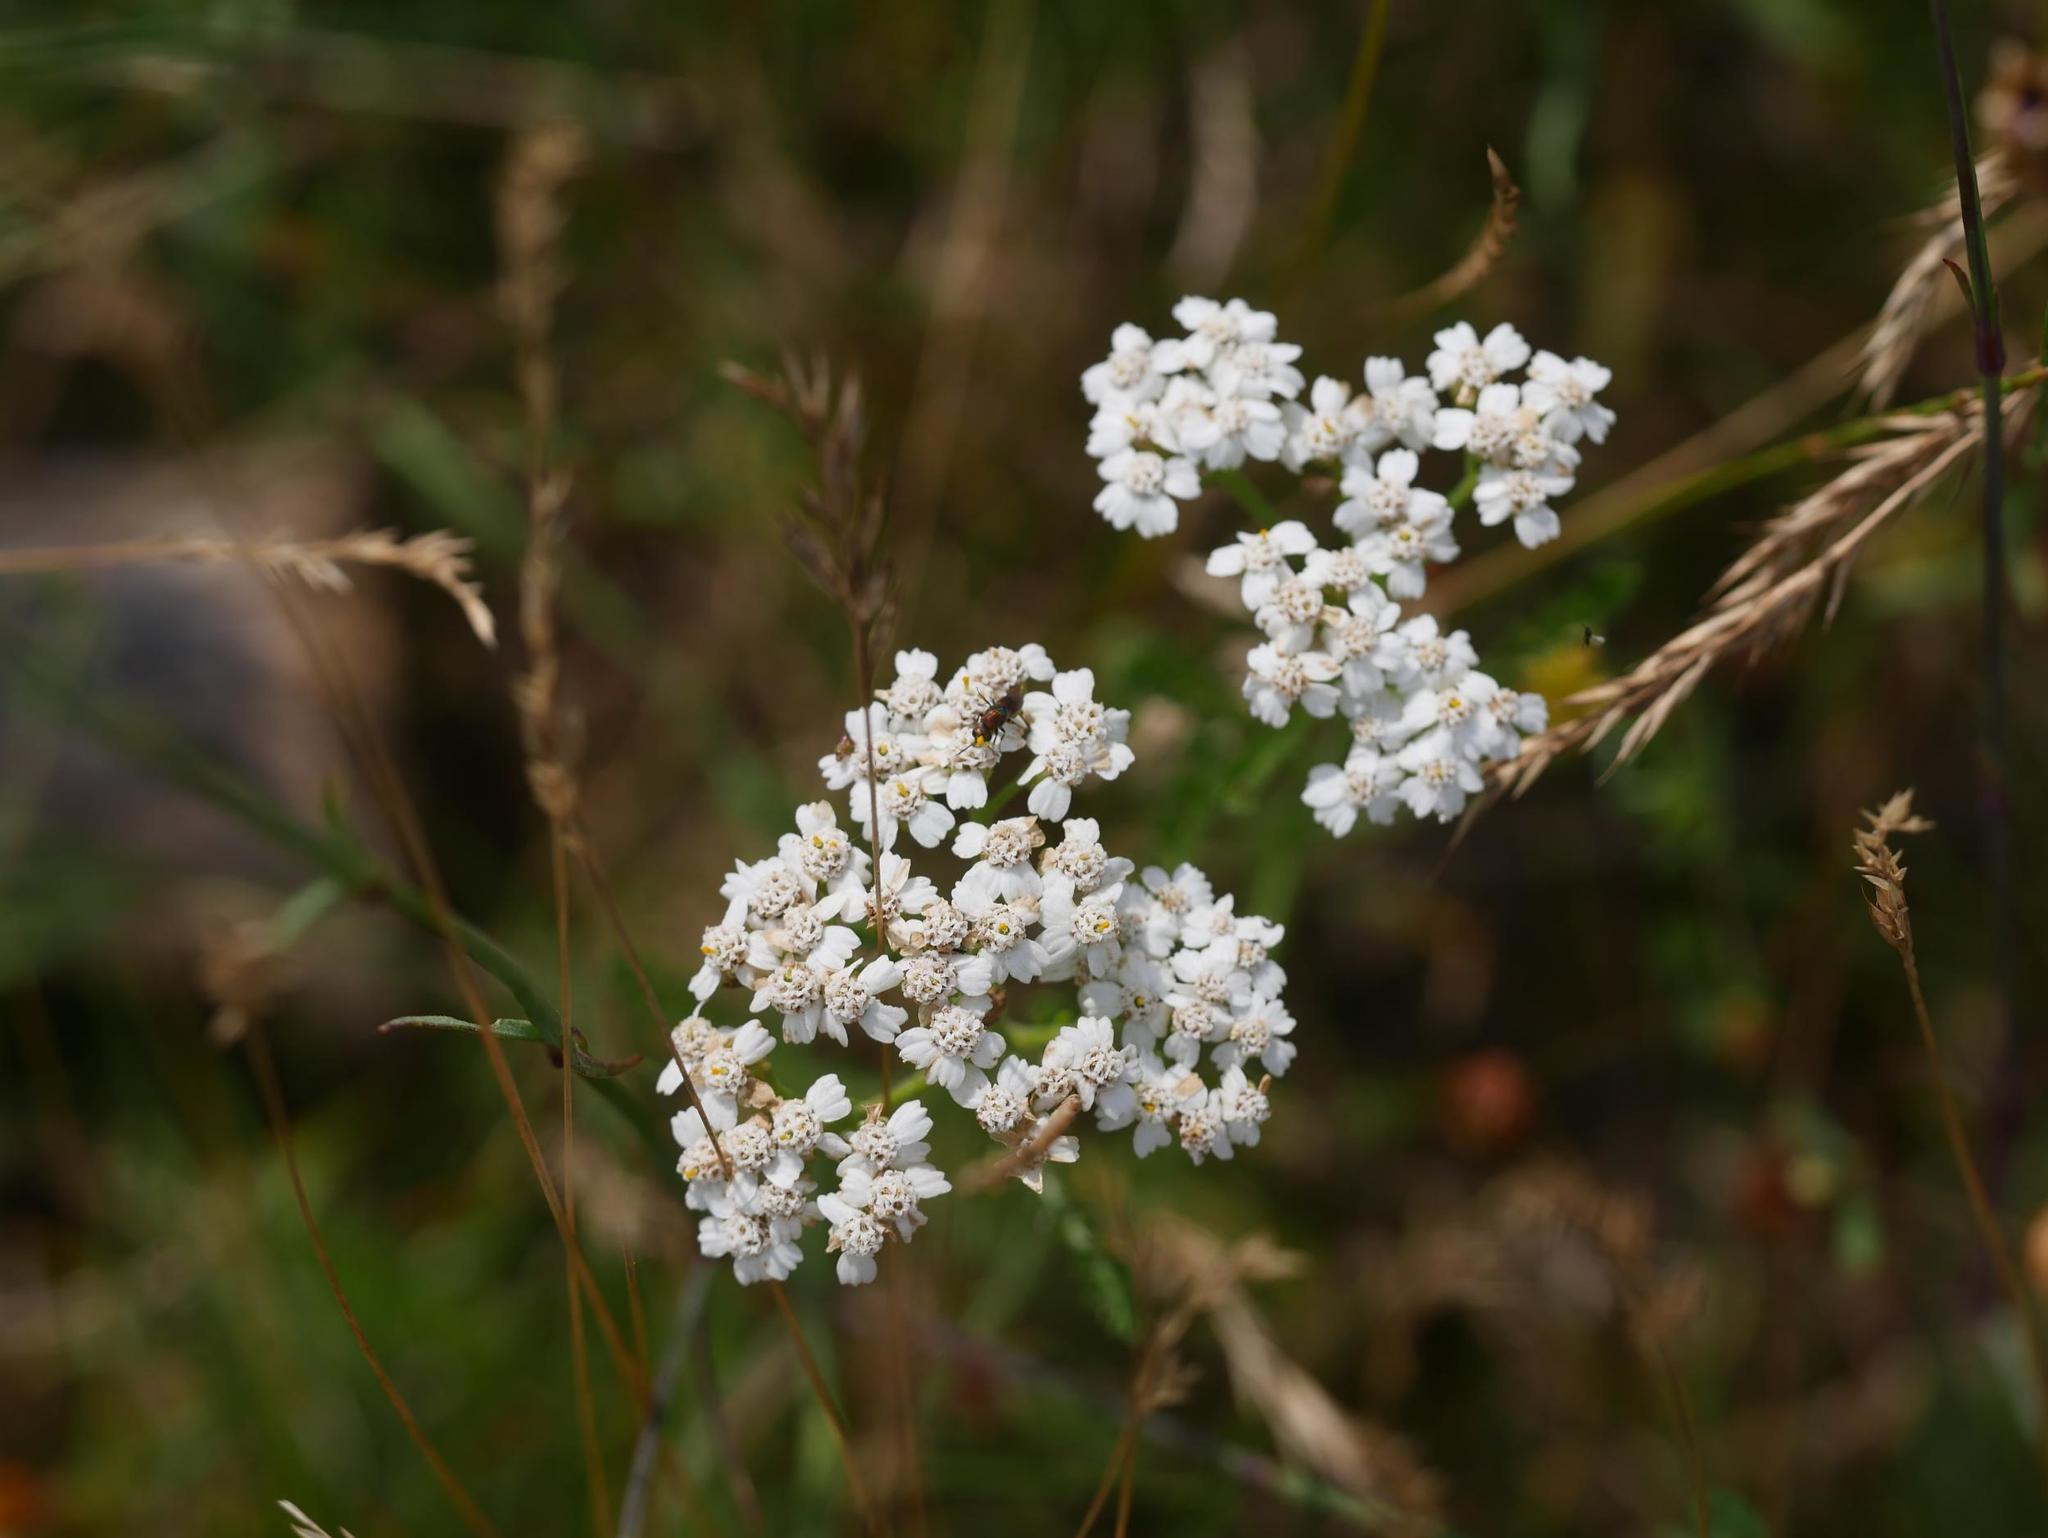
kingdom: Plantae
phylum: Tracheophyta
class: Magnoliopsida
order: Asterales
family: Asteraceae
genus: Achillea
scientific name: Achillea millefolium
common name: Yarrow
